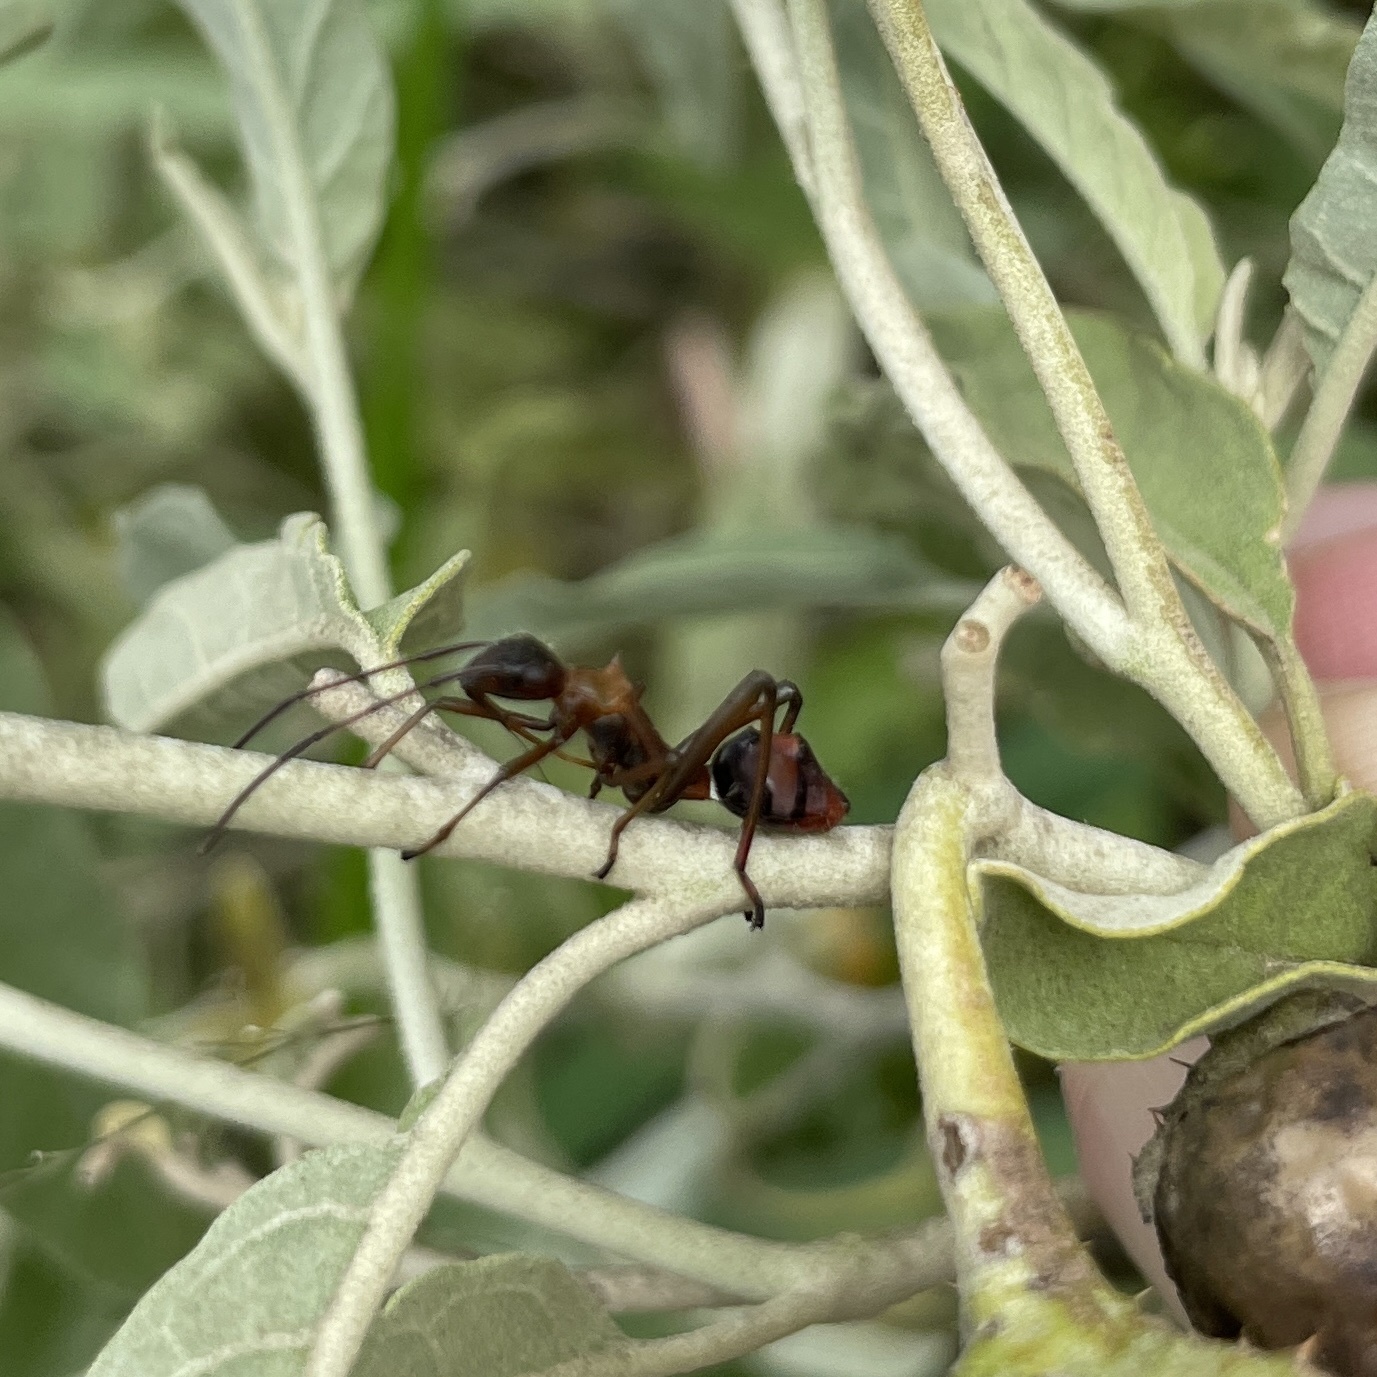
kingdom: Animalia
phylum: Arthropoda
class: Insecta
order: Hemiptera
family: Alydidae
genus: Hyalymenus
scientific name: Hyalymenus tarsatus
